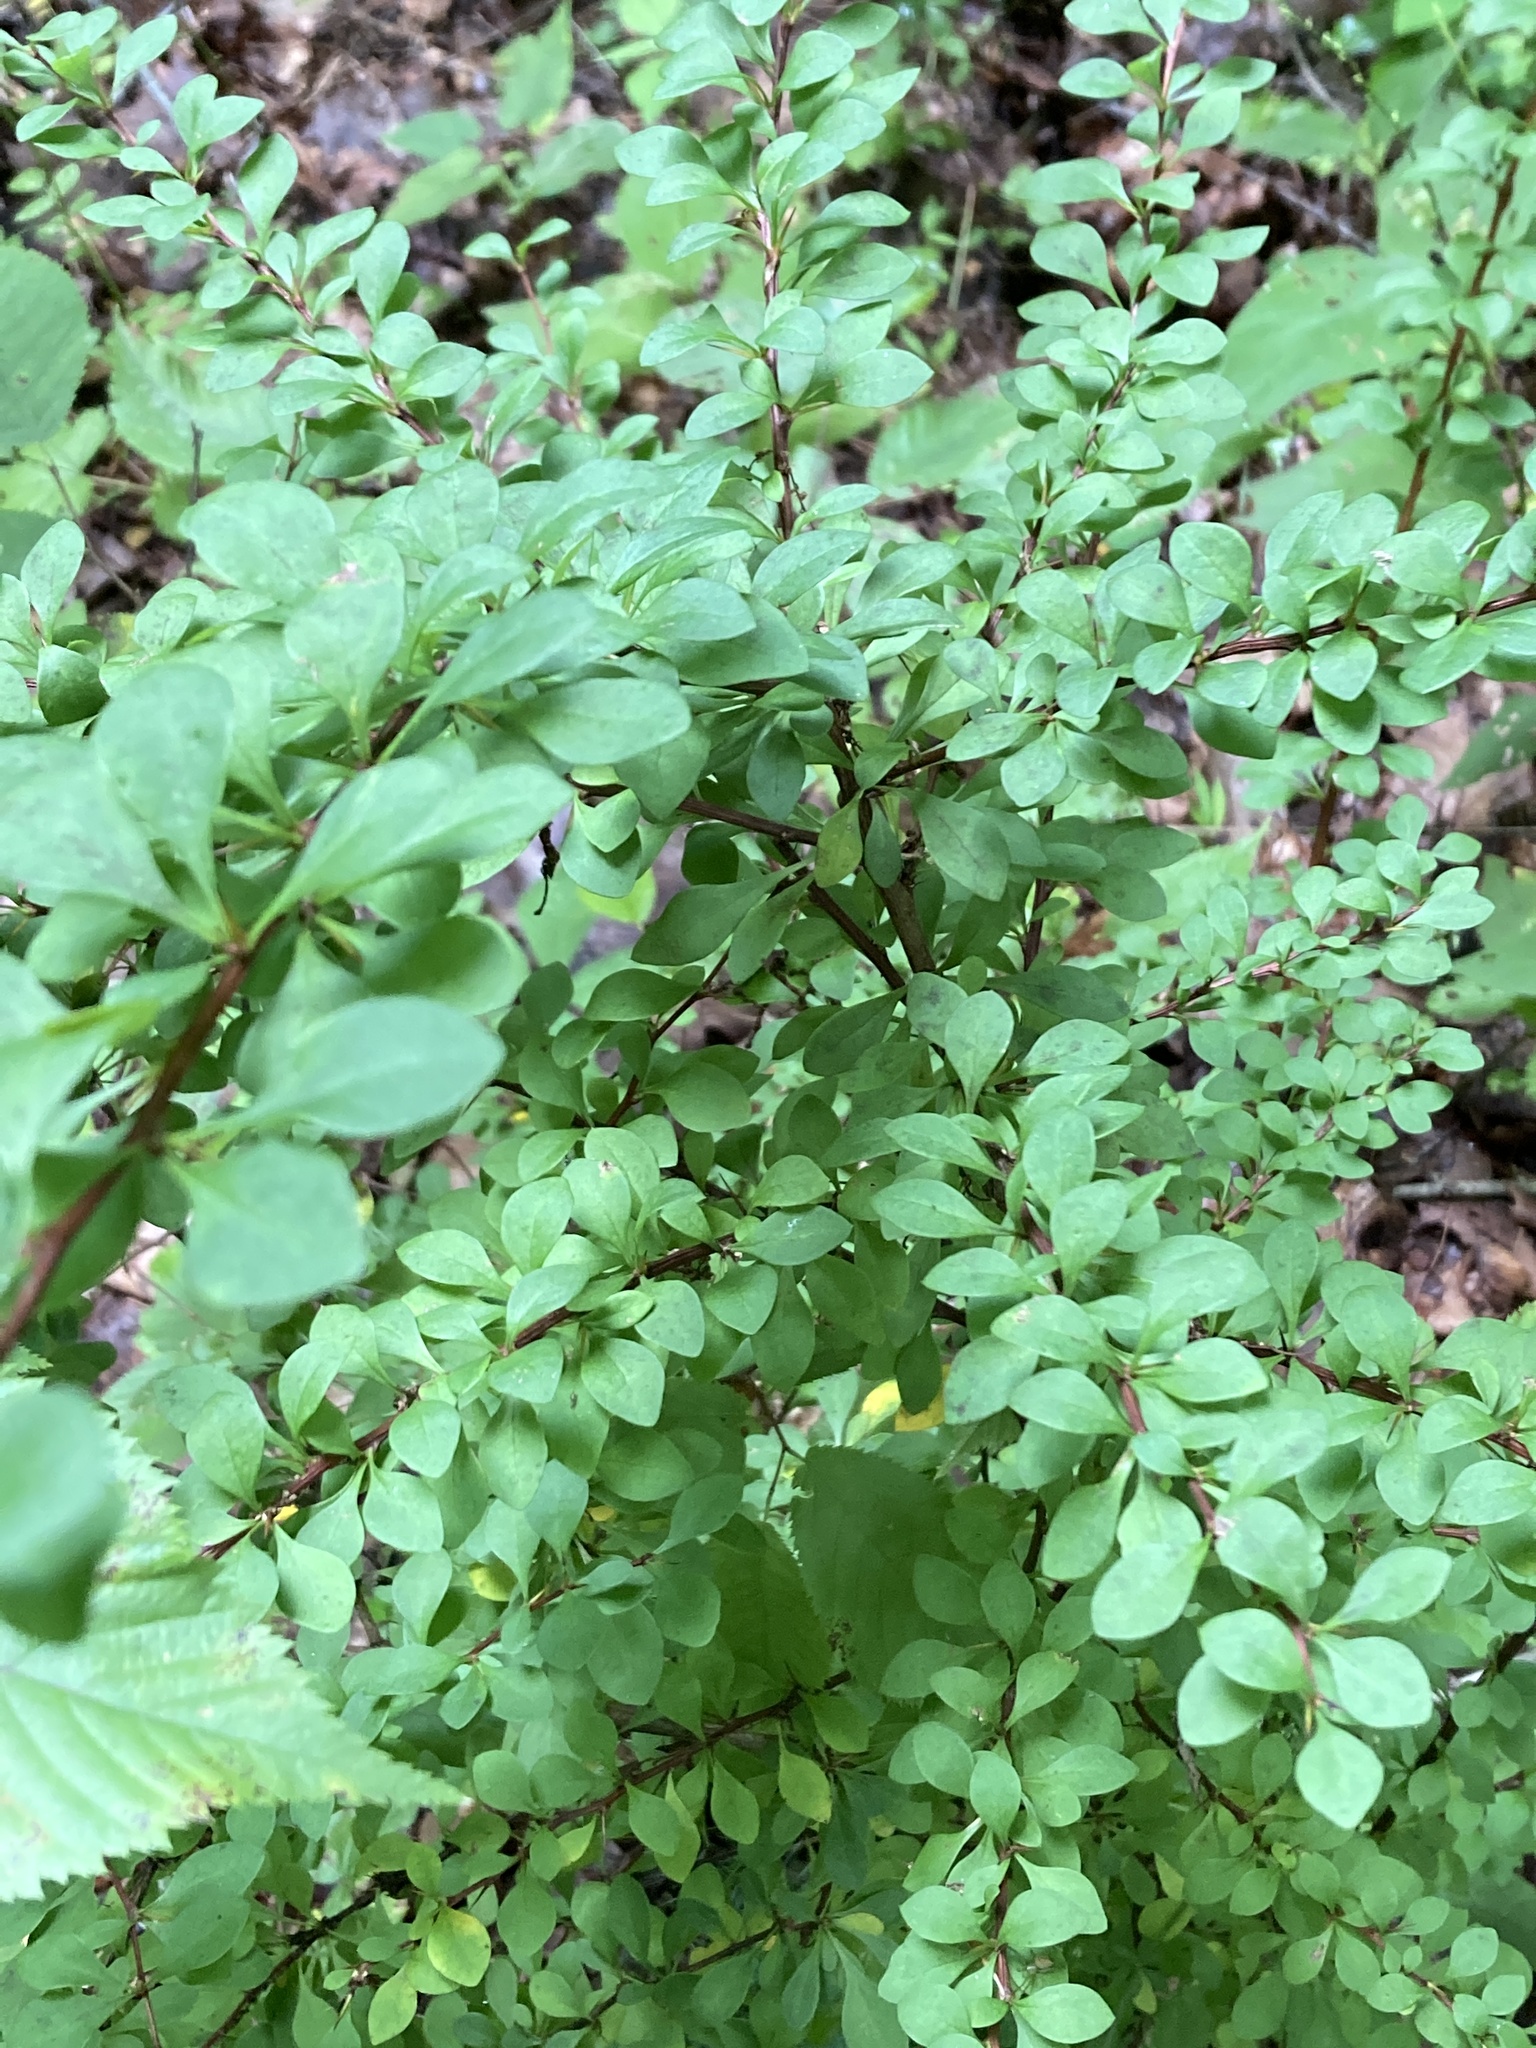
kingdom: Plantae
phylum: Tracheophyta
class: Magnoliopsida
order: Ranunculales
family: Berberidaceae
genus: Berberis
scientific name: Berberis thunbergii
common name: Japanese barberry
